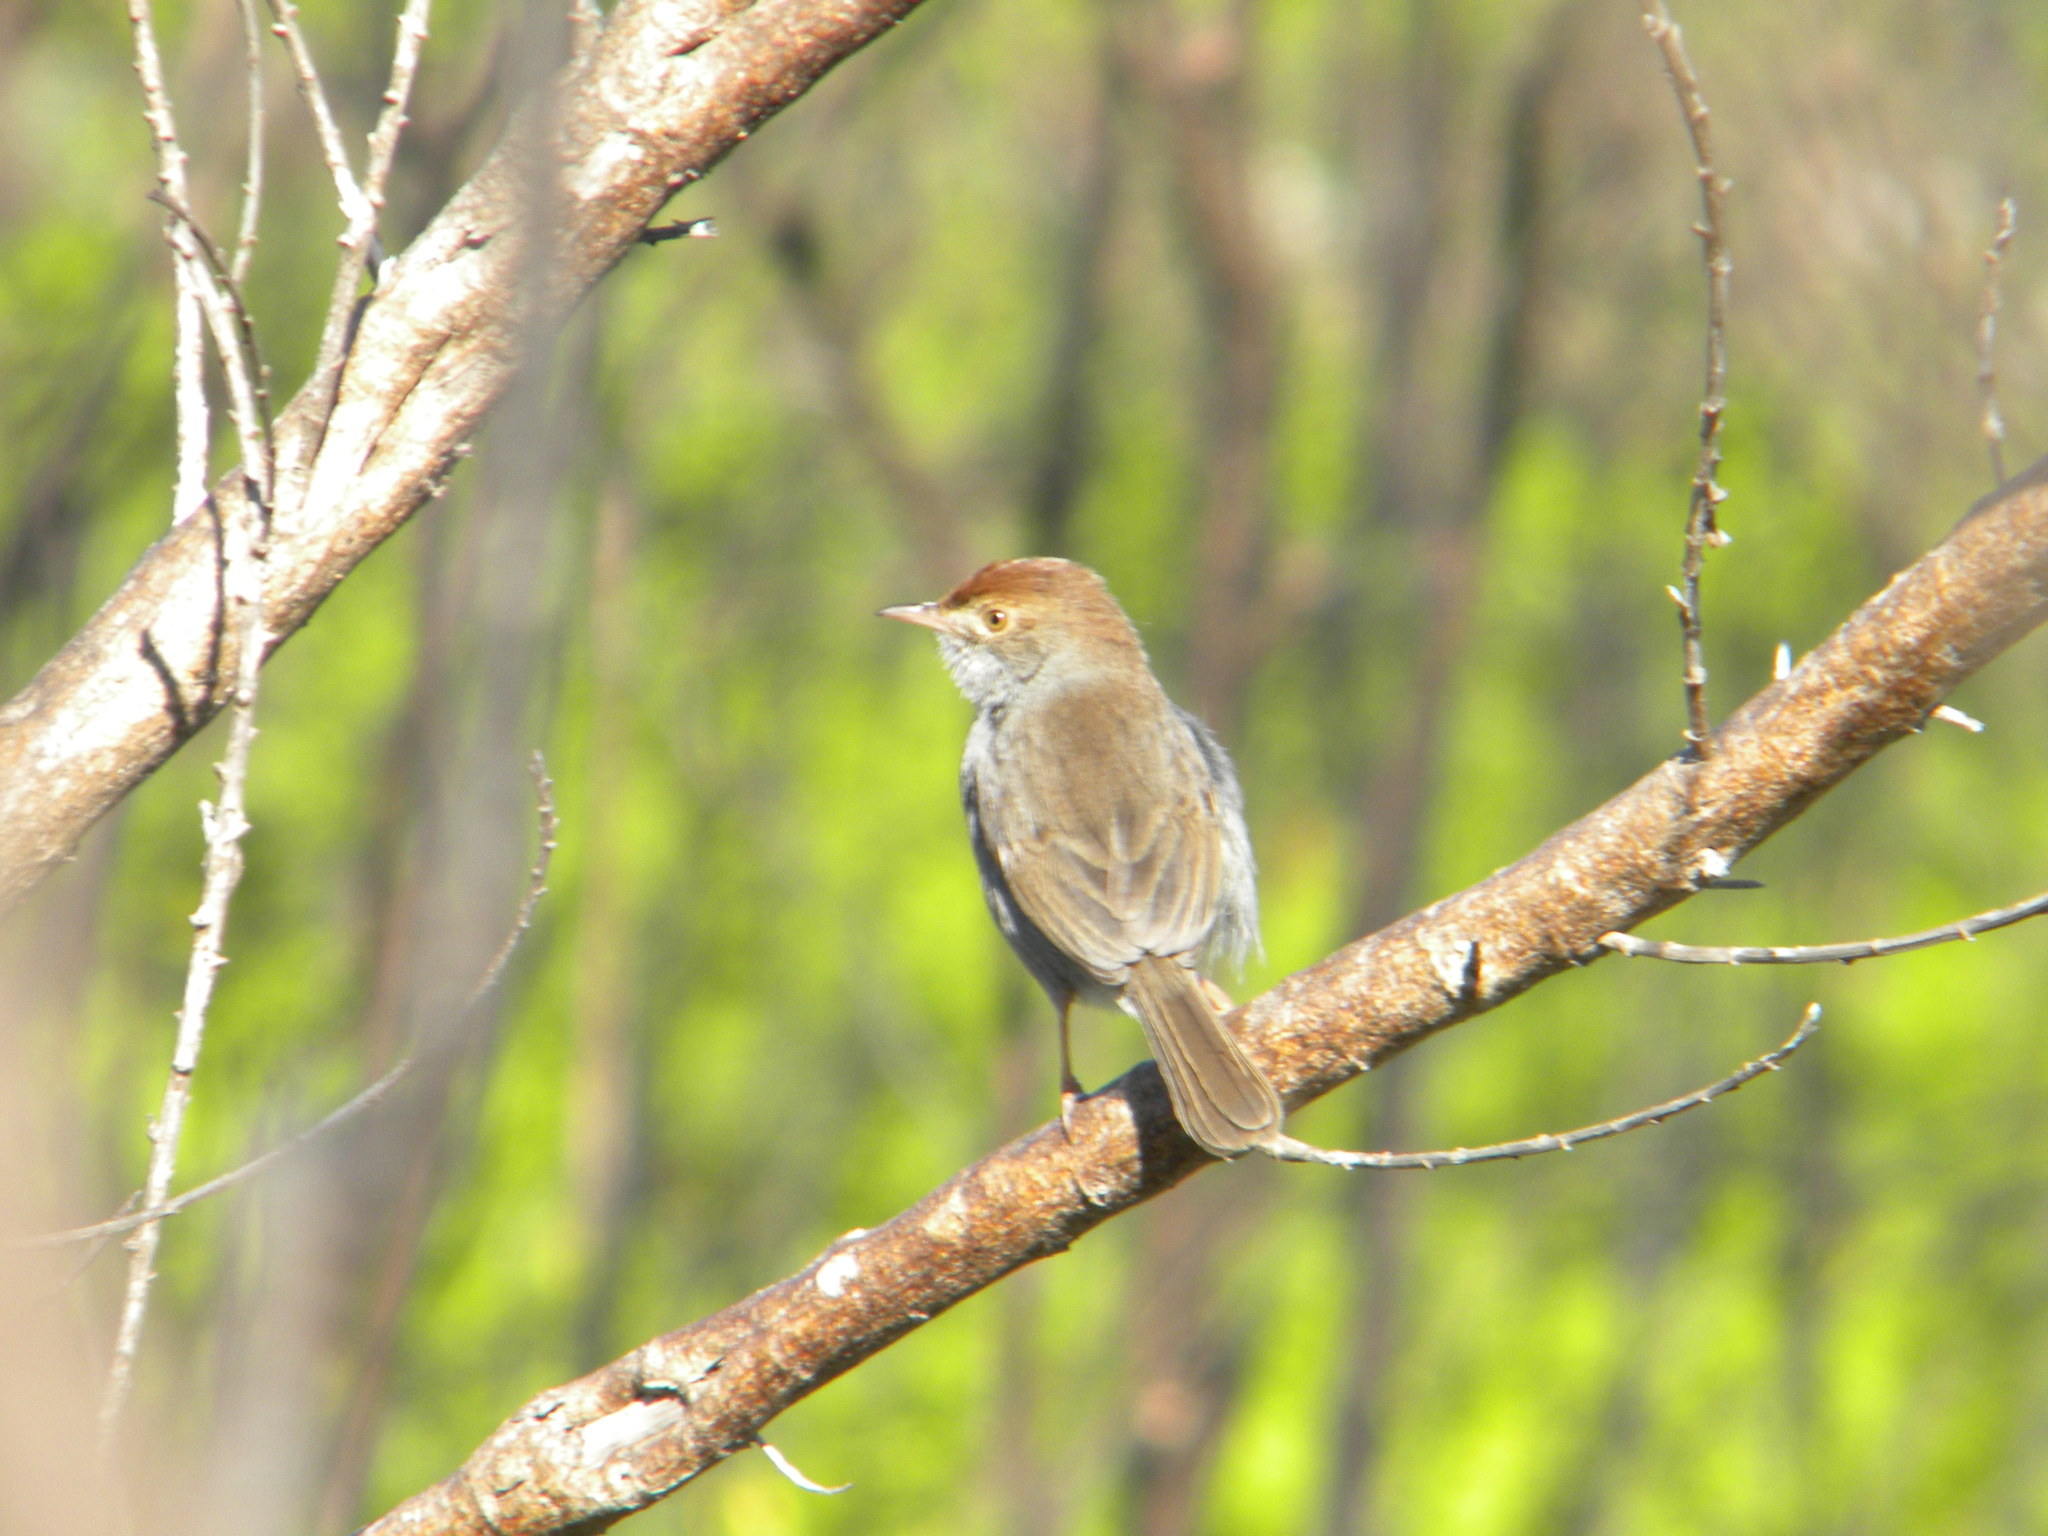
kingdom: Animalia
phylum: Chordata
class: Aves
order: Passeriformes
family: Cisticolidae
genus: Cisticola
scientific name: Cisticola fulvicapilla
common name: Neddicky
